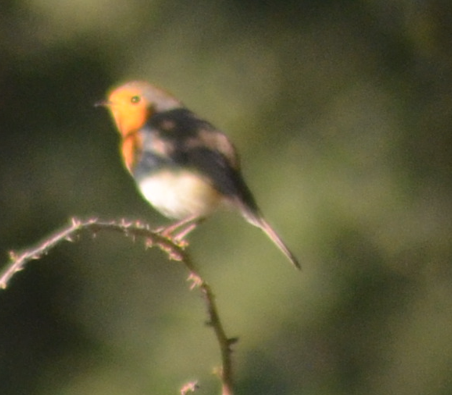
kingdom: Animalia
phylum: Chordata
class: Aves
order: Passeriformes
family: Muscicapidae
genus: Erithacus
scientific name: Erithacus rubecula
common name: European robin
